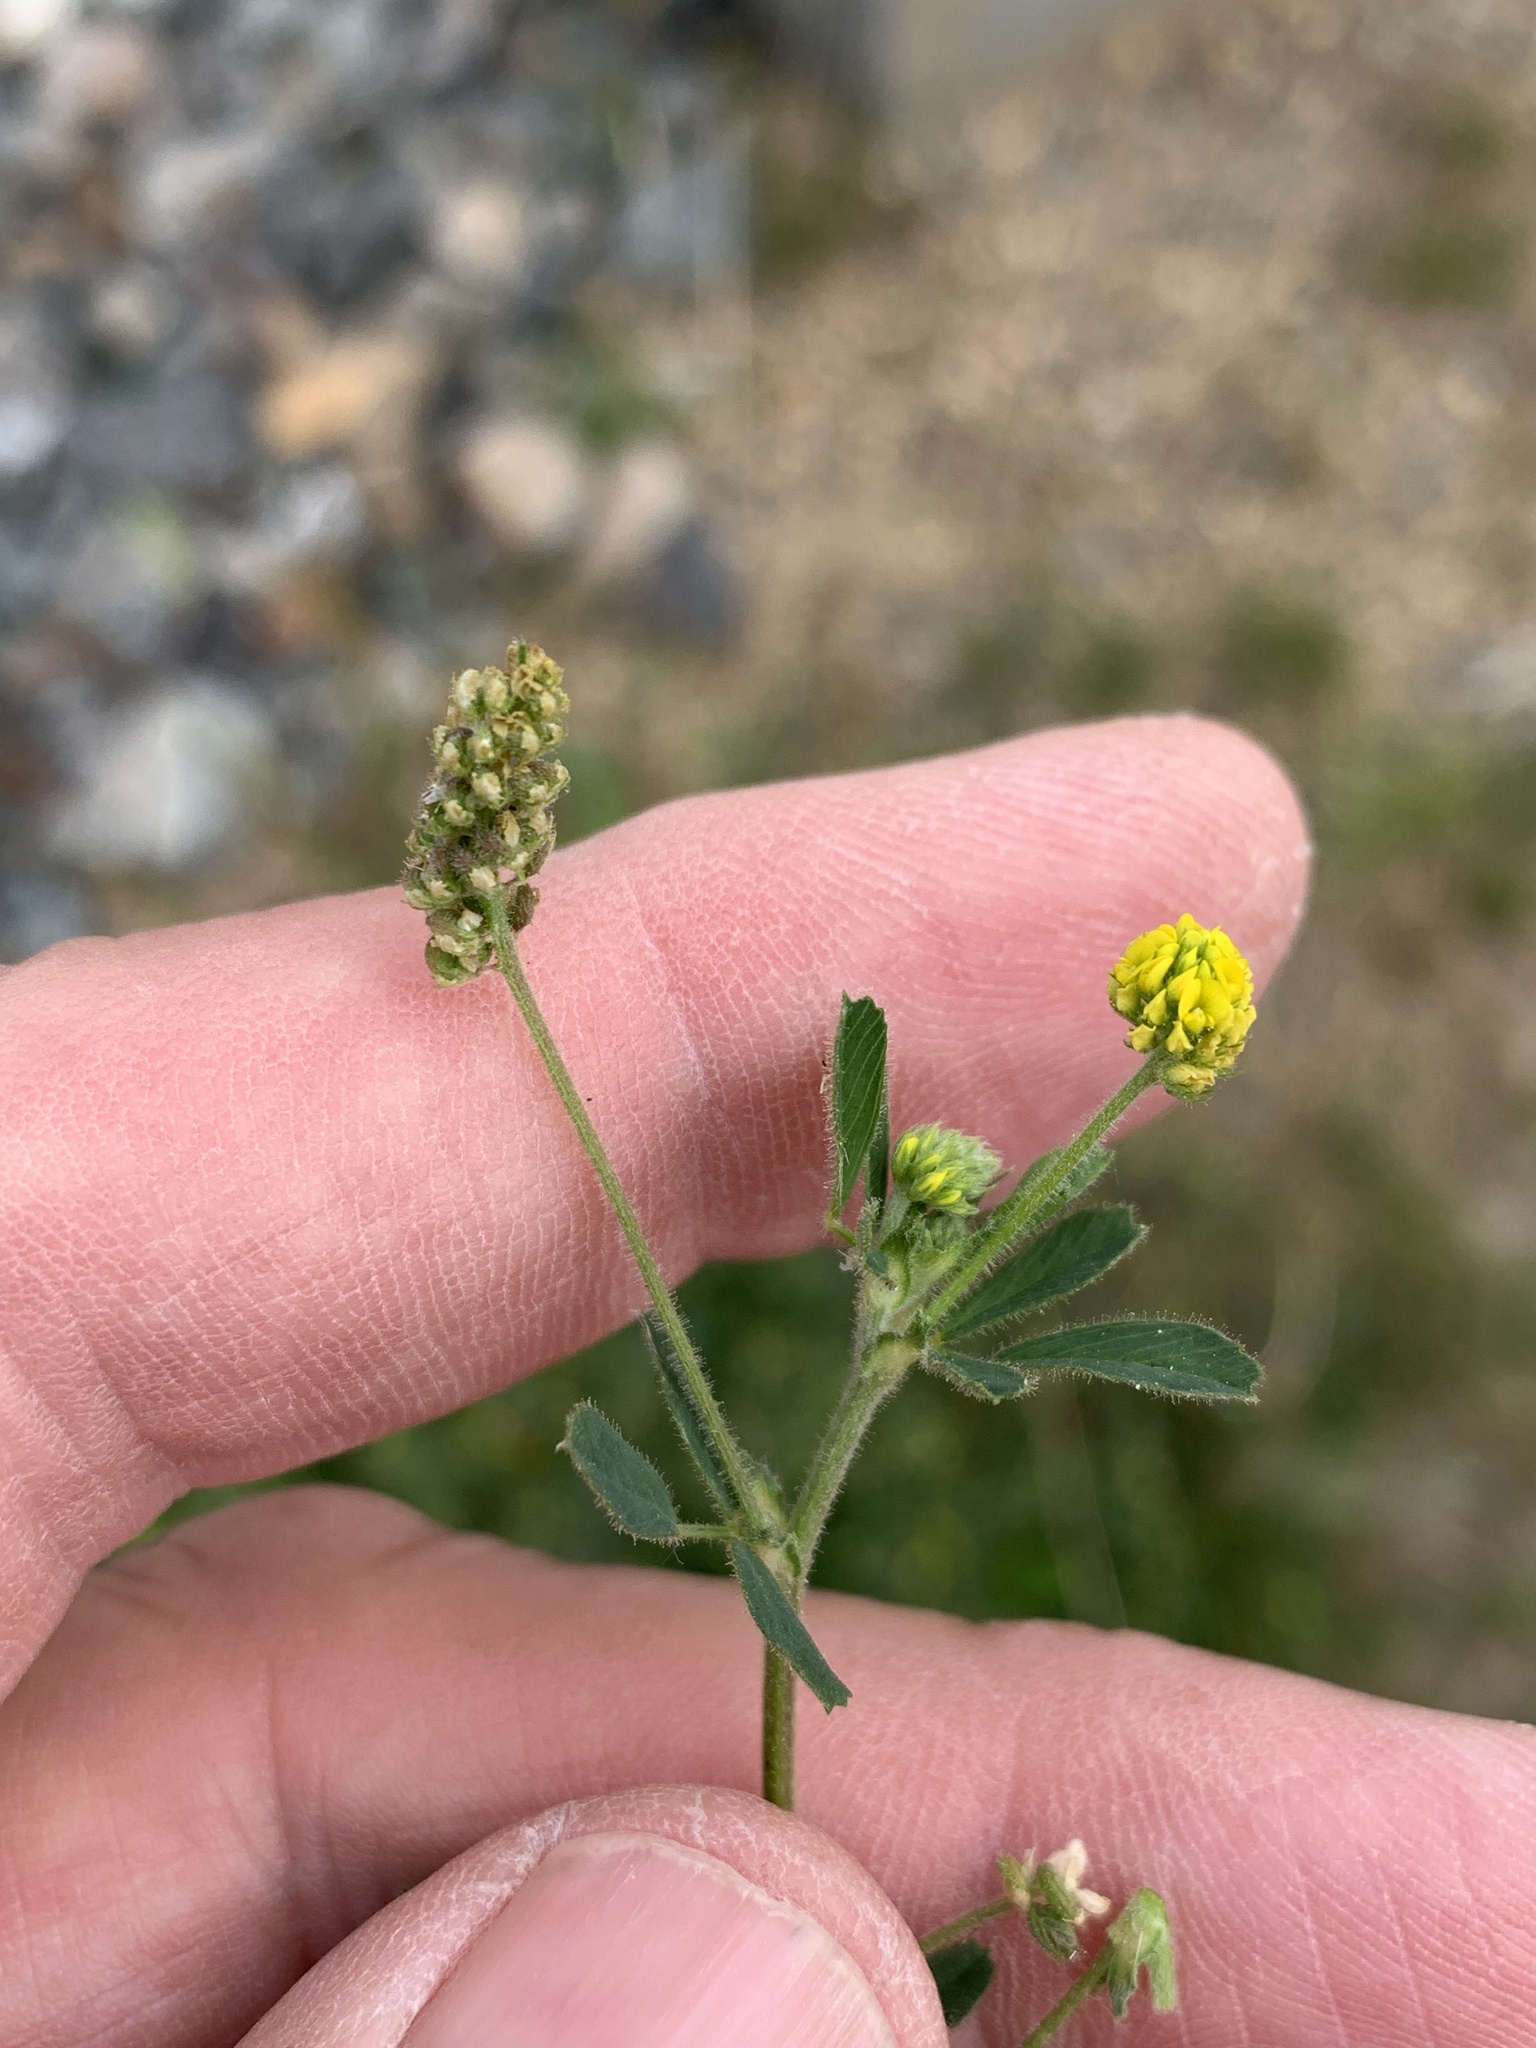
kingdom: Plantae
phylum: Tracheophyta
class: Magnoliopsida
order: Fabales
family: Fabaceae
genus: Medicago
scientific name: Medicago lupulina
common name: Black medick
